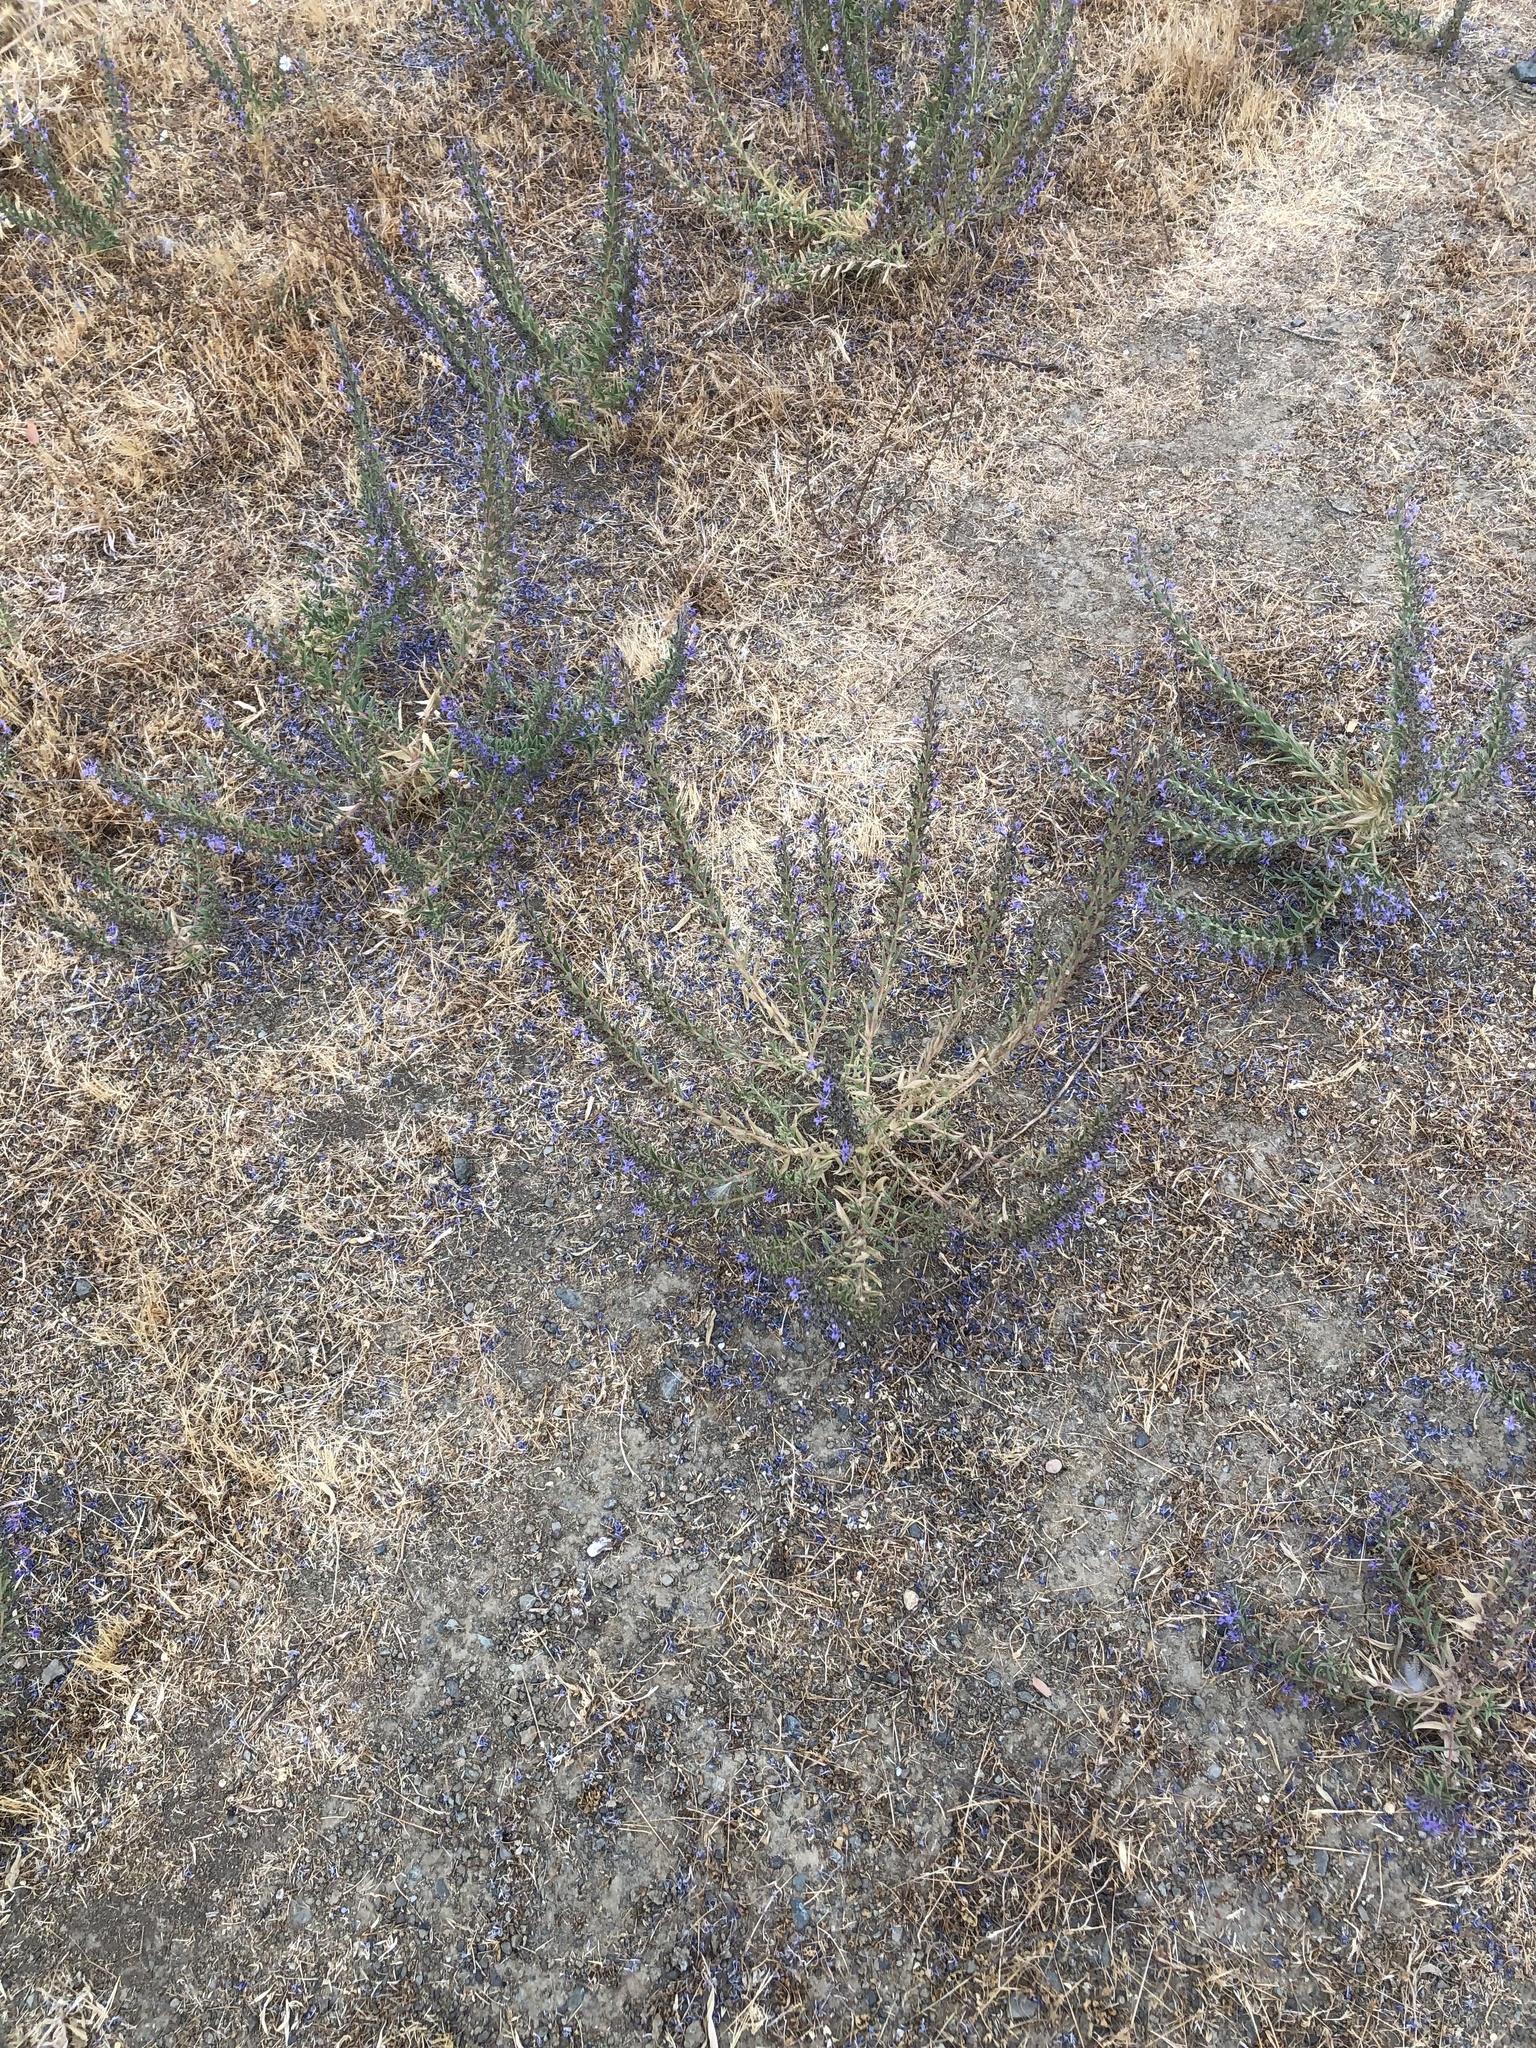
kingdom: Plantae
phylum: Tracheophyta
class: Magnoliopsida
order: Lamiales
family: Lamiaceae
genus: Trichostema
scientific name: Trichostema lanceolatum
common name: Vinegar-weed
